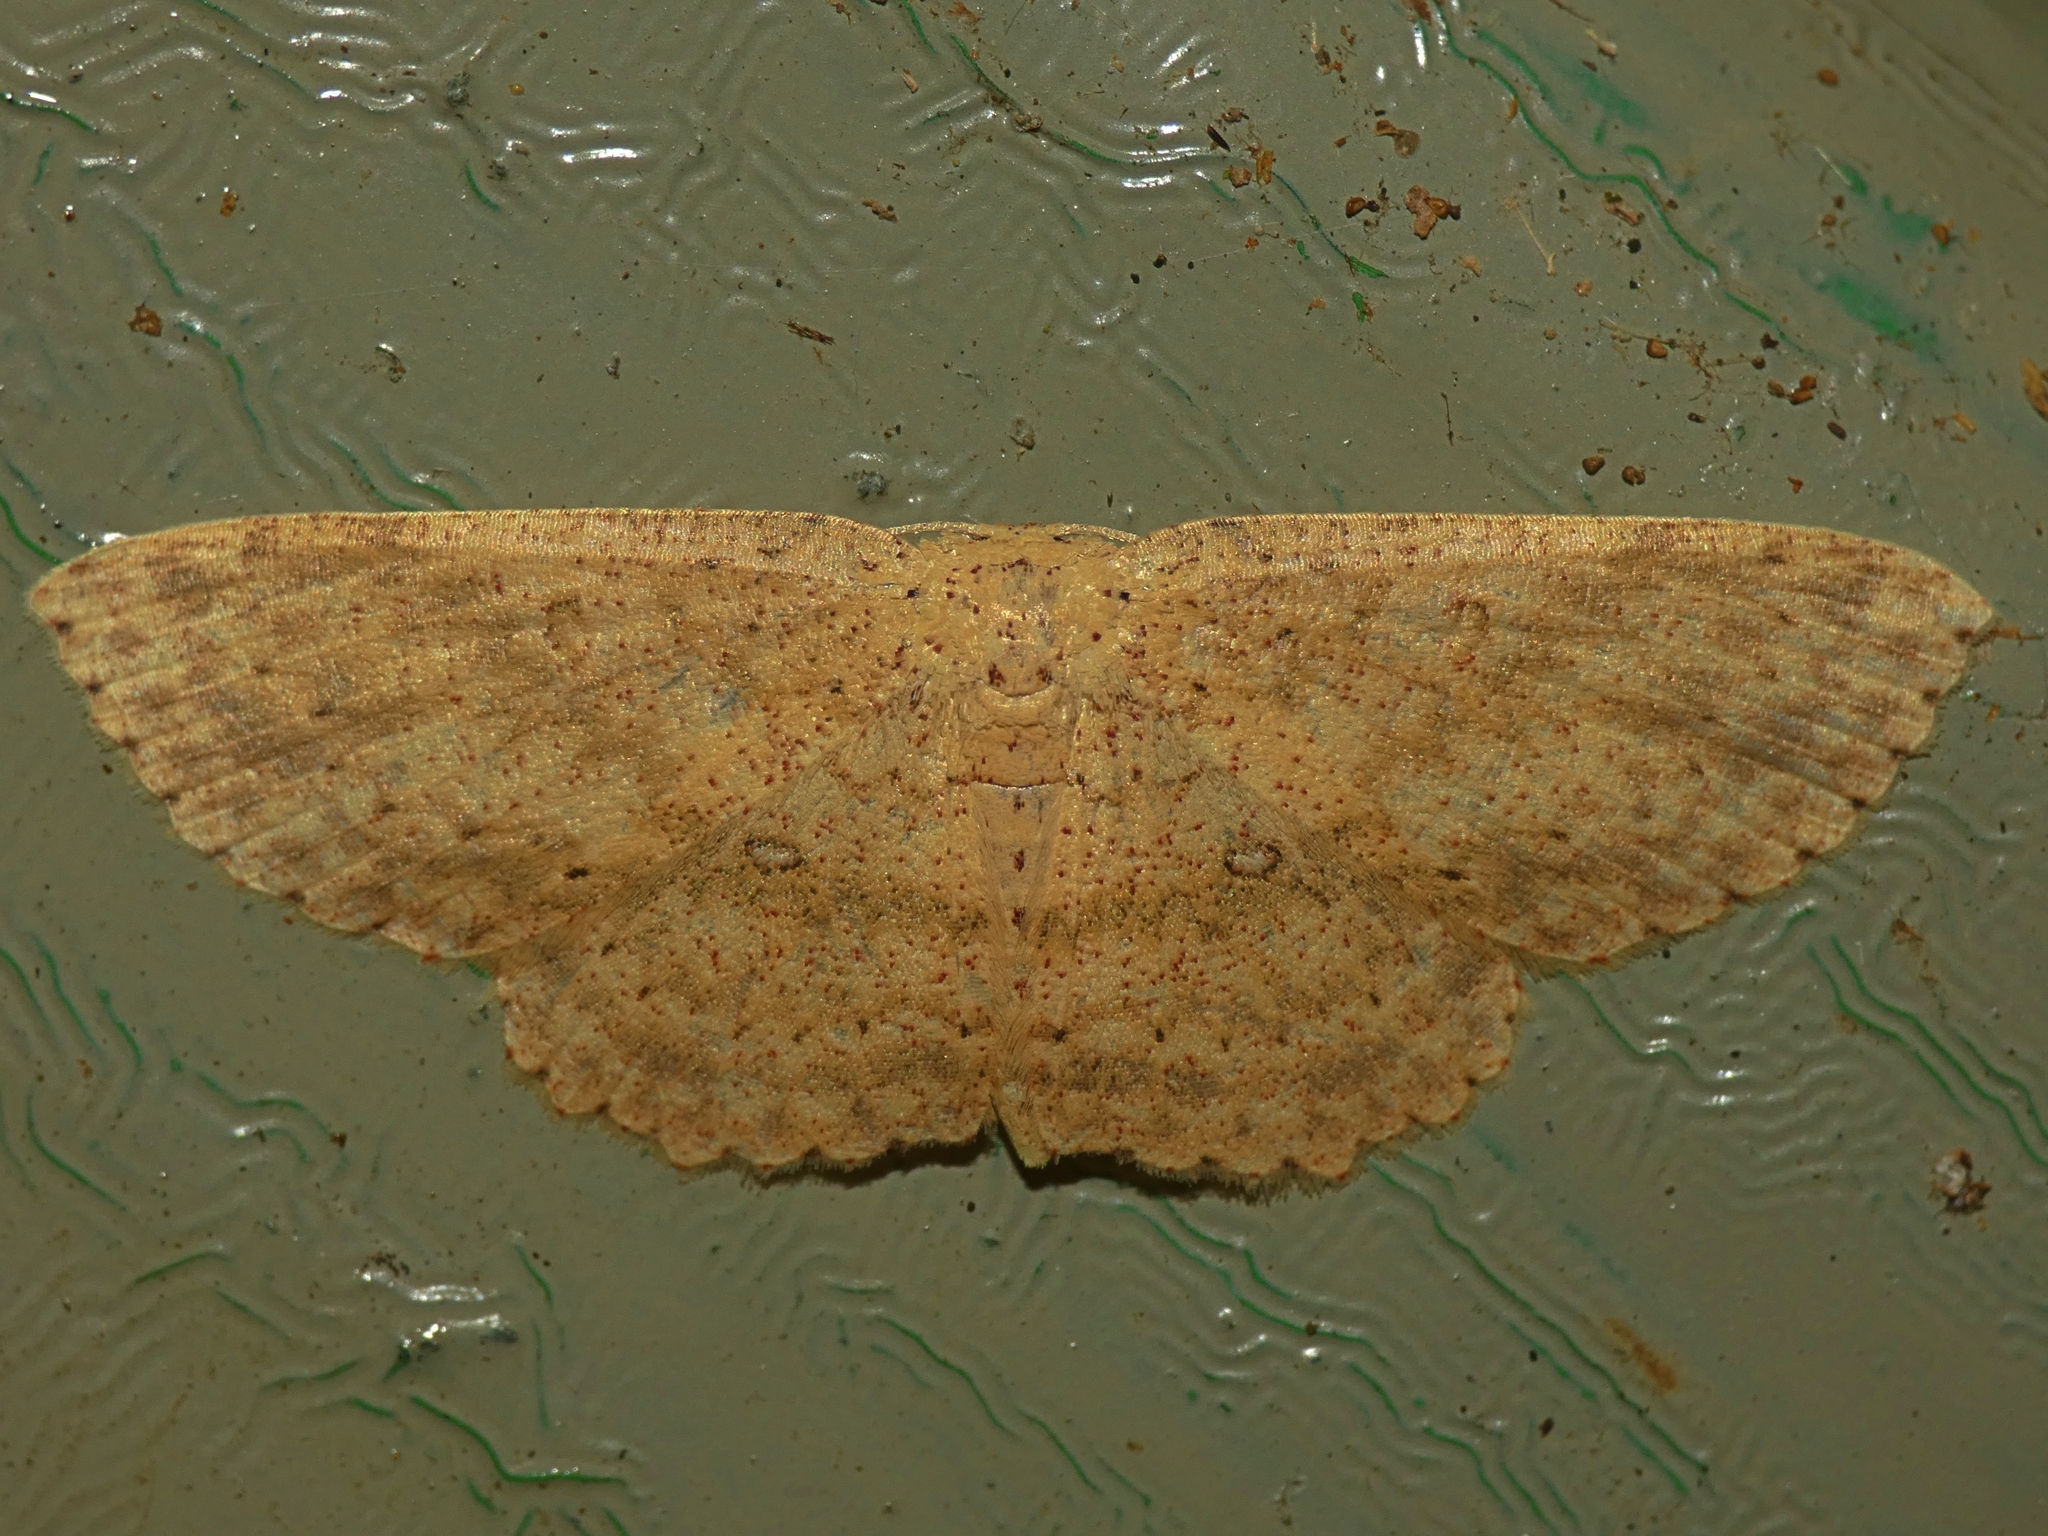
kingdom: Animalia
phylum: Arthropoda
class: Insecta
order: Lepidoptera
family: Geometridae
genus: Cyclophora
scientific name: Cyclophora leptopasta
